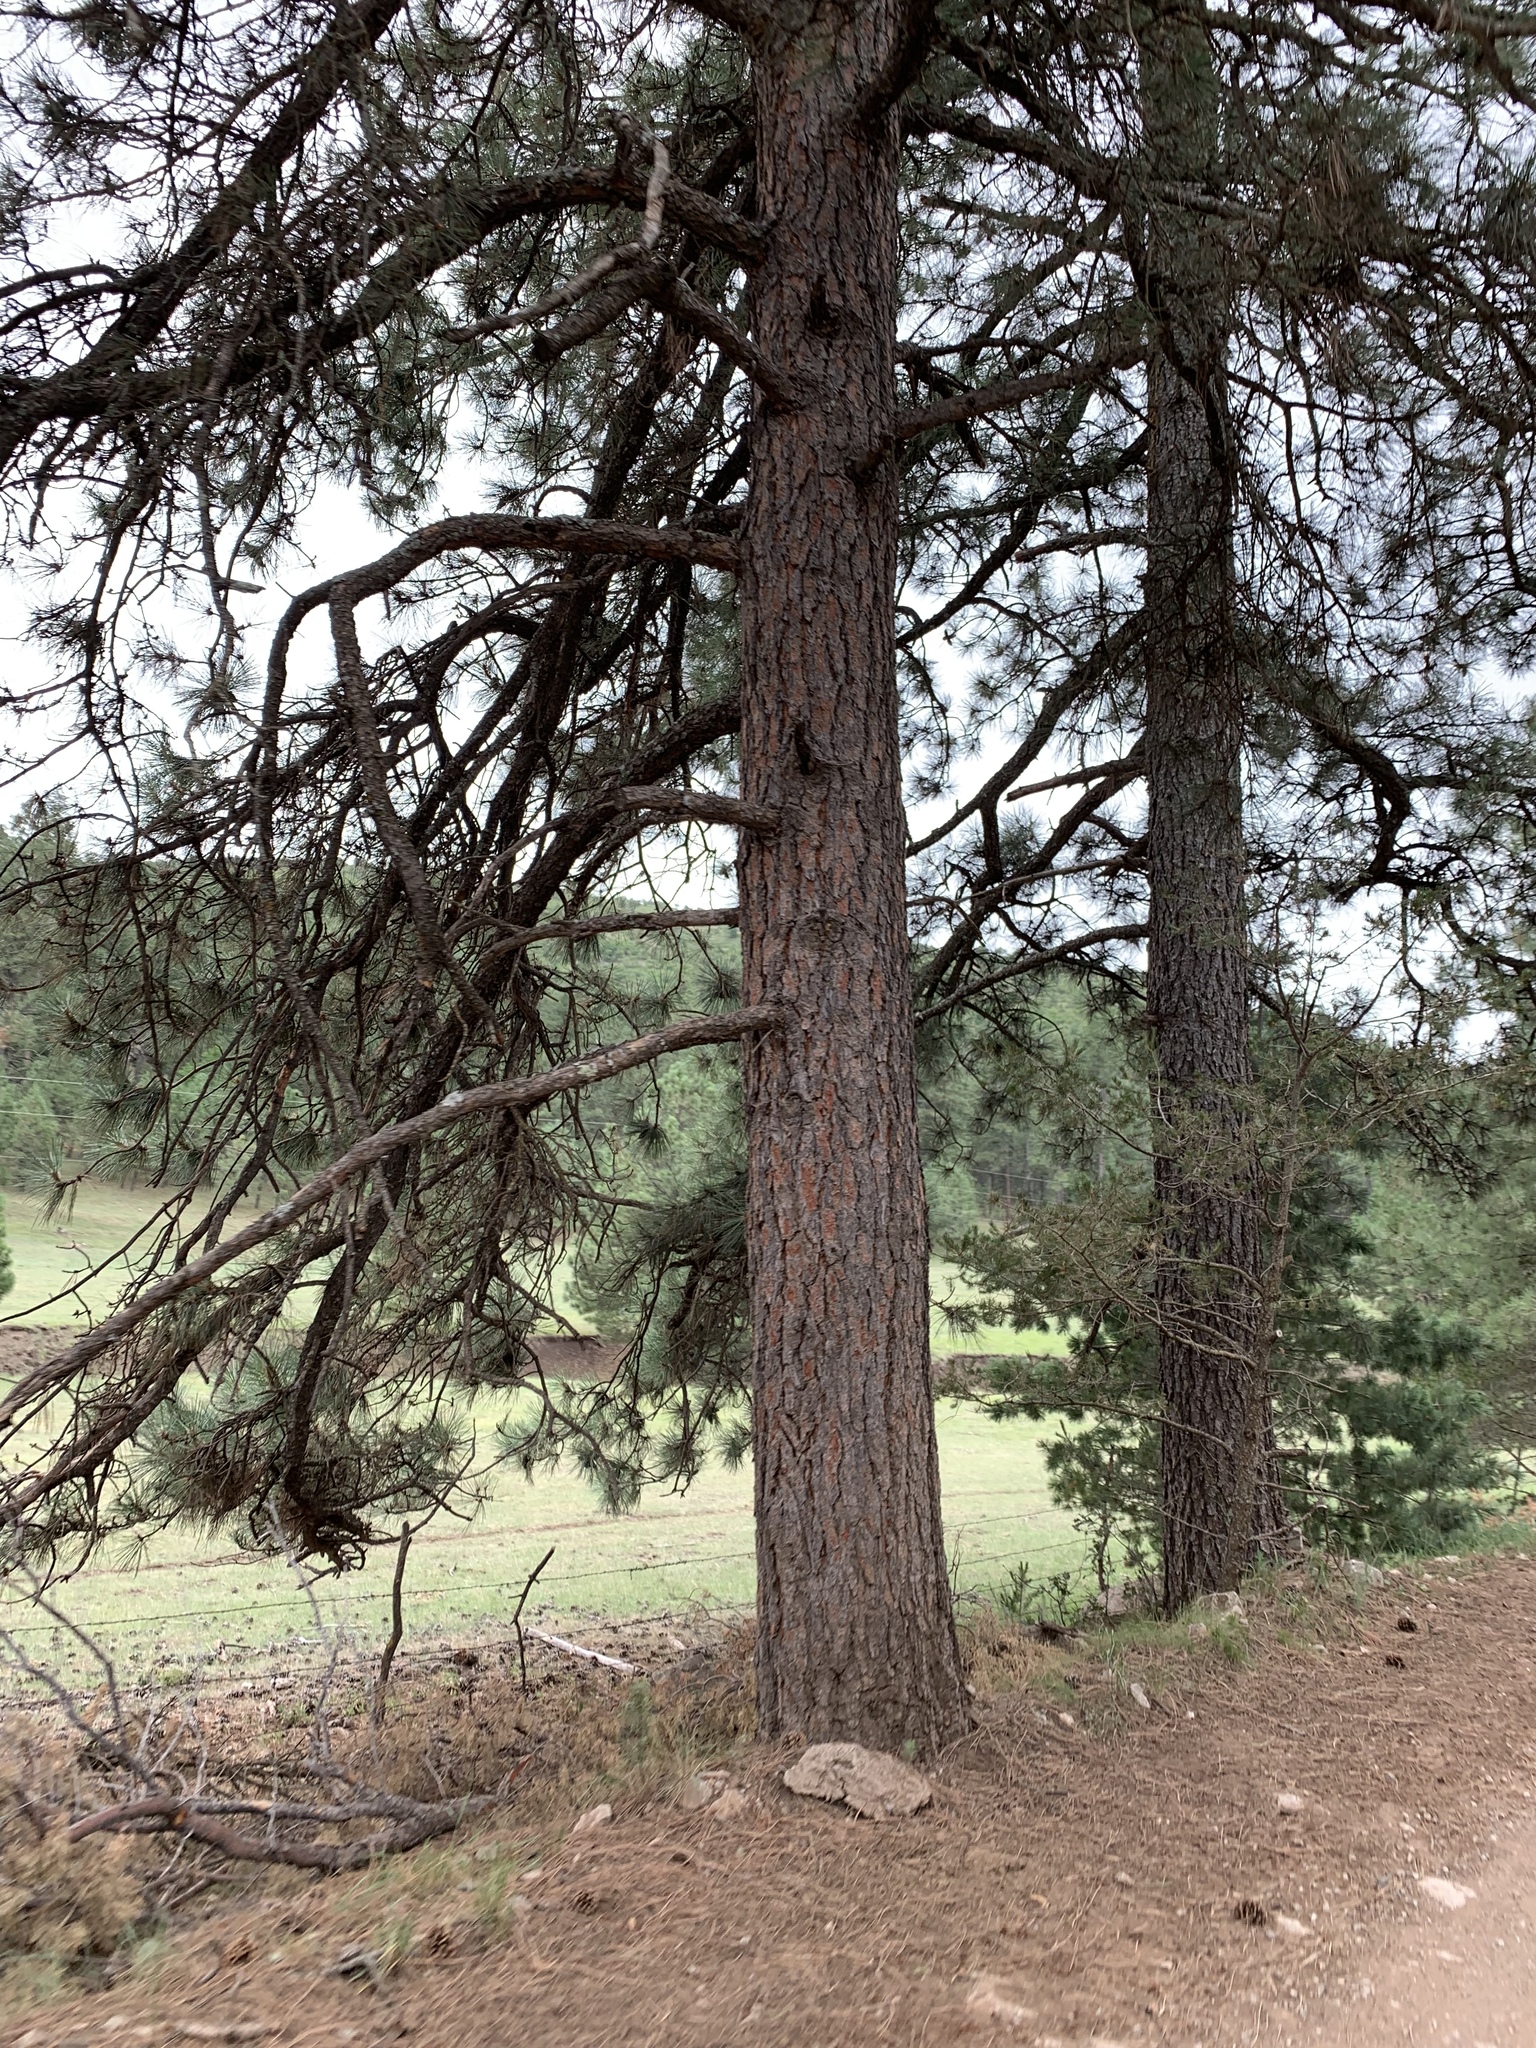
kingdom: Plantae
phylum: Tracheophyta
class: Pinopsida
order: Pinales
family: Pinaceae
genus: Pinus
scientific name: Pinus ponderosa
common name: Western yellow-pine
